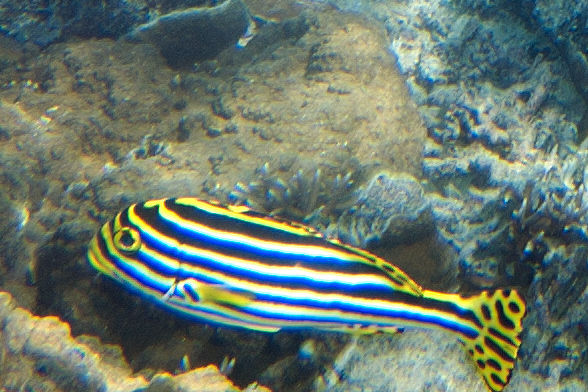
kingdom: Animalia
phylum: Chordata
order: Perciformes
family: Haemulidae
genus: Plectorhinchus
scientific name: Plectorhinchus vittatus
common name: Oriental sweetlips
